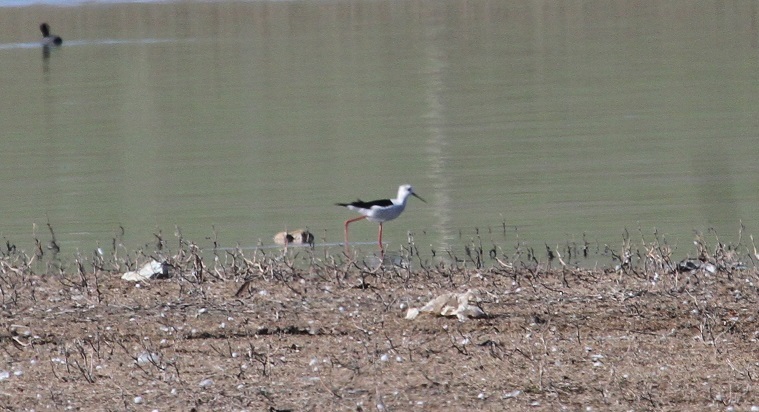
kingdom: Animalia
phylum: Chordata
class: Aves
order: Charadriiformes
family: Recurvirostridae
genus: Himantopus
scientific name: Himantopus himantopus
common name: Black-winged stilt
